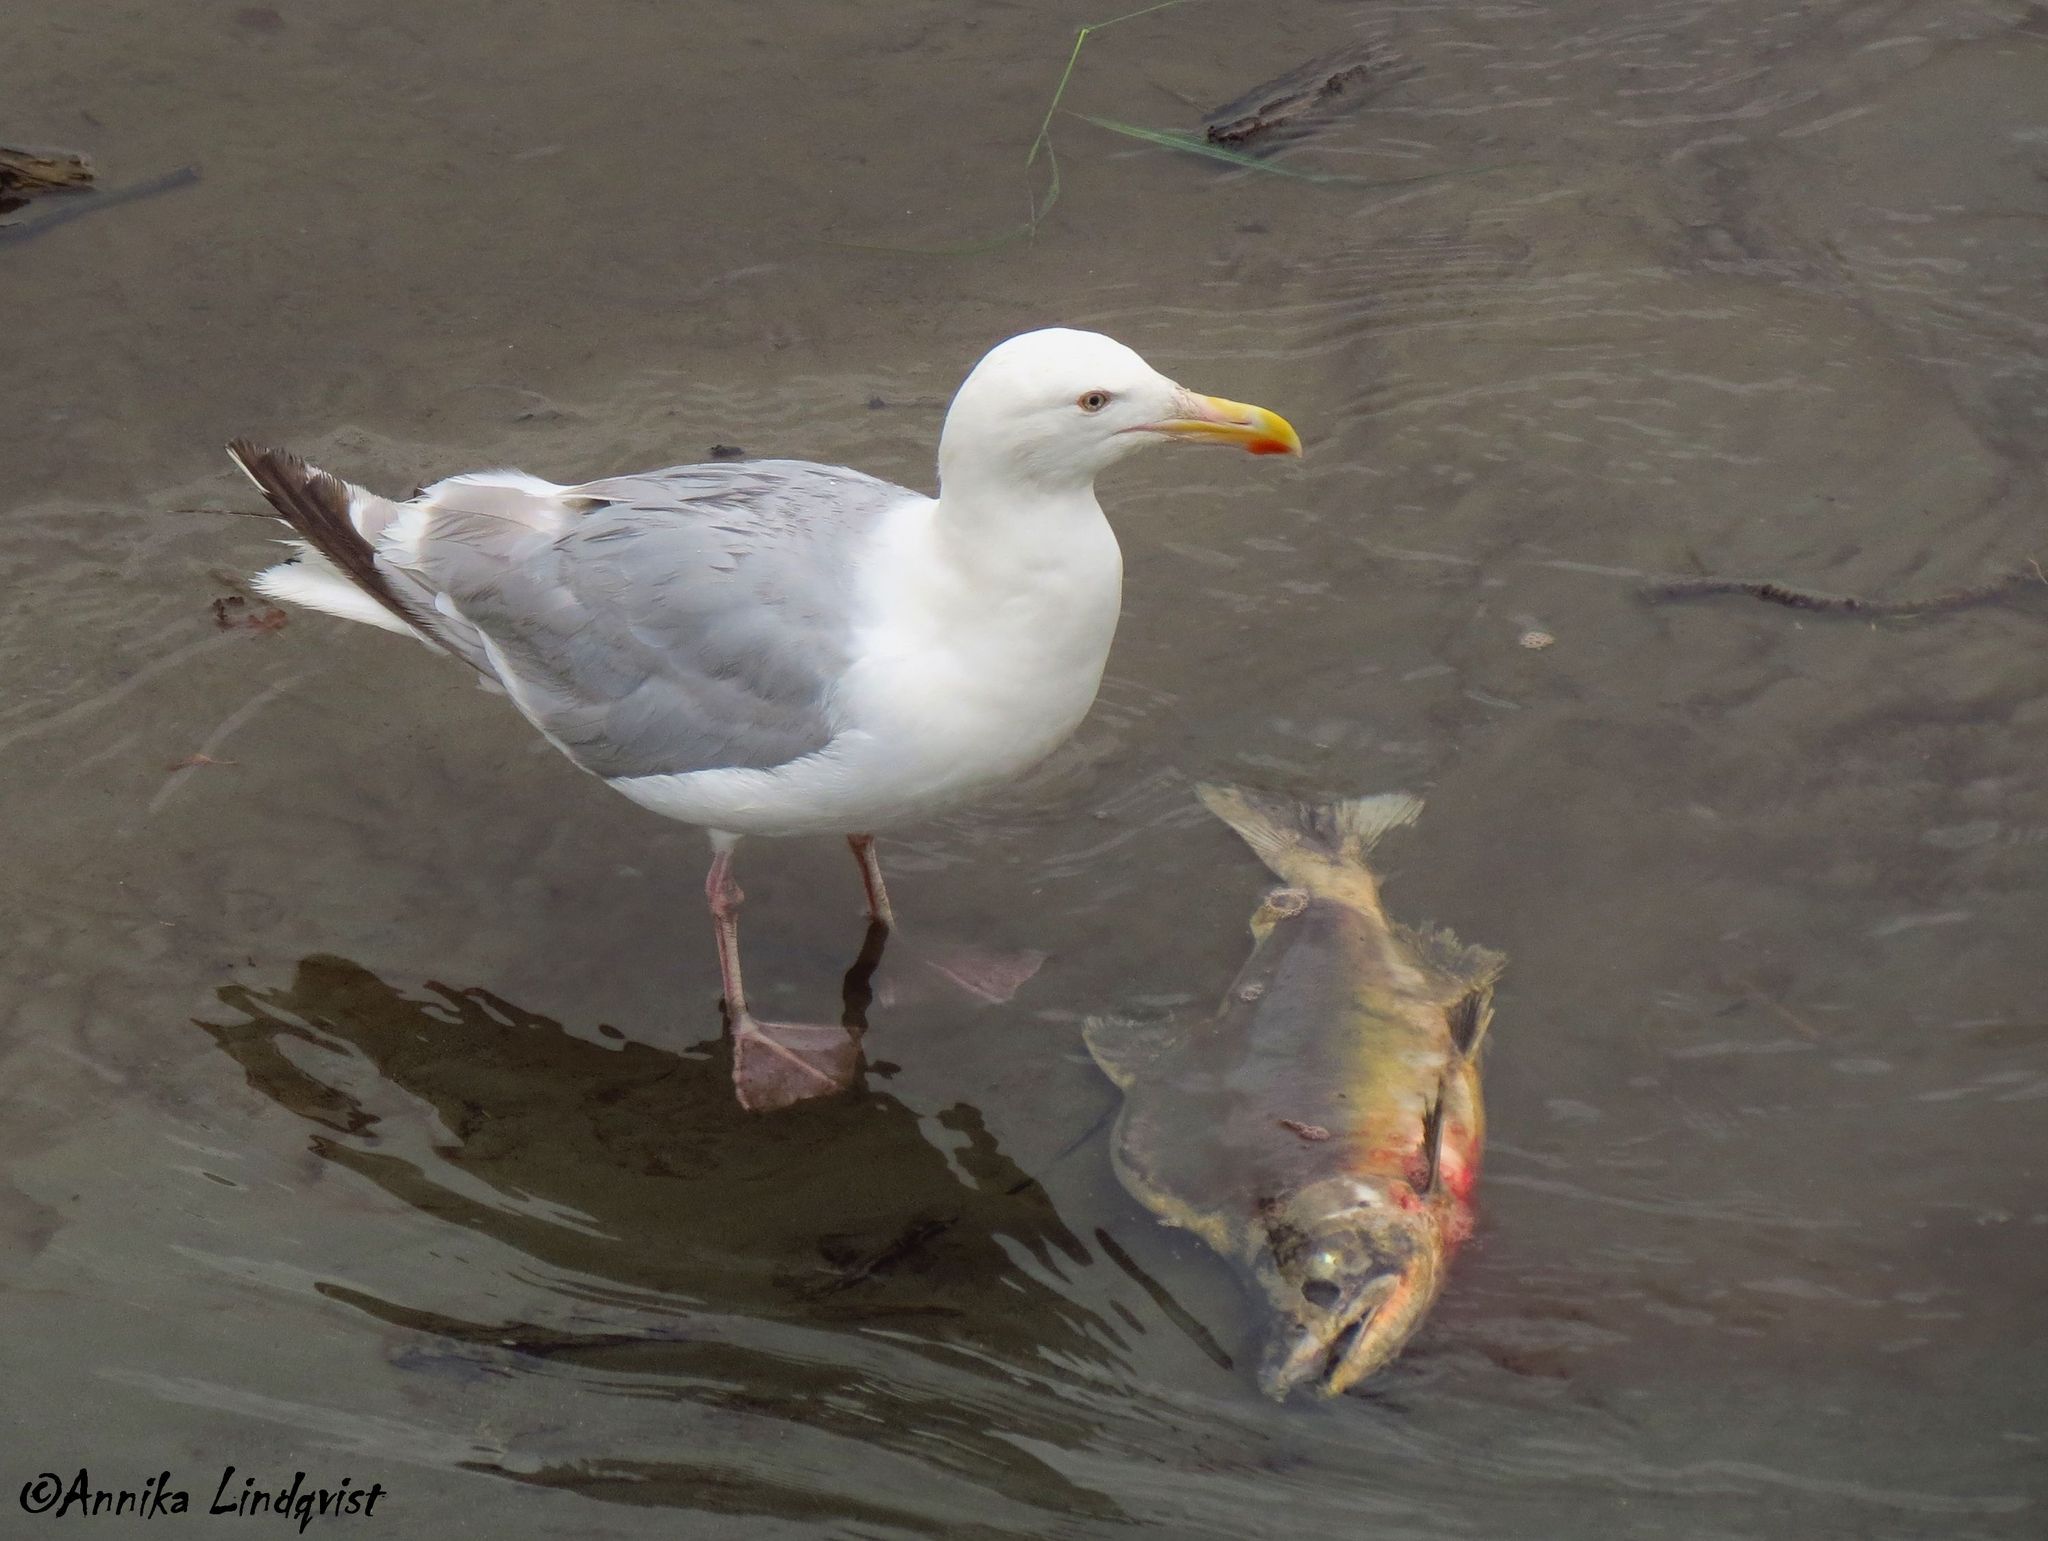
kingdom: Animalia
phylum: Chordata
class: Aves
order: Charadriiformes
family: Laridae
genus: Larus
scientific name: Larus argentatus
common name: Herring gull
